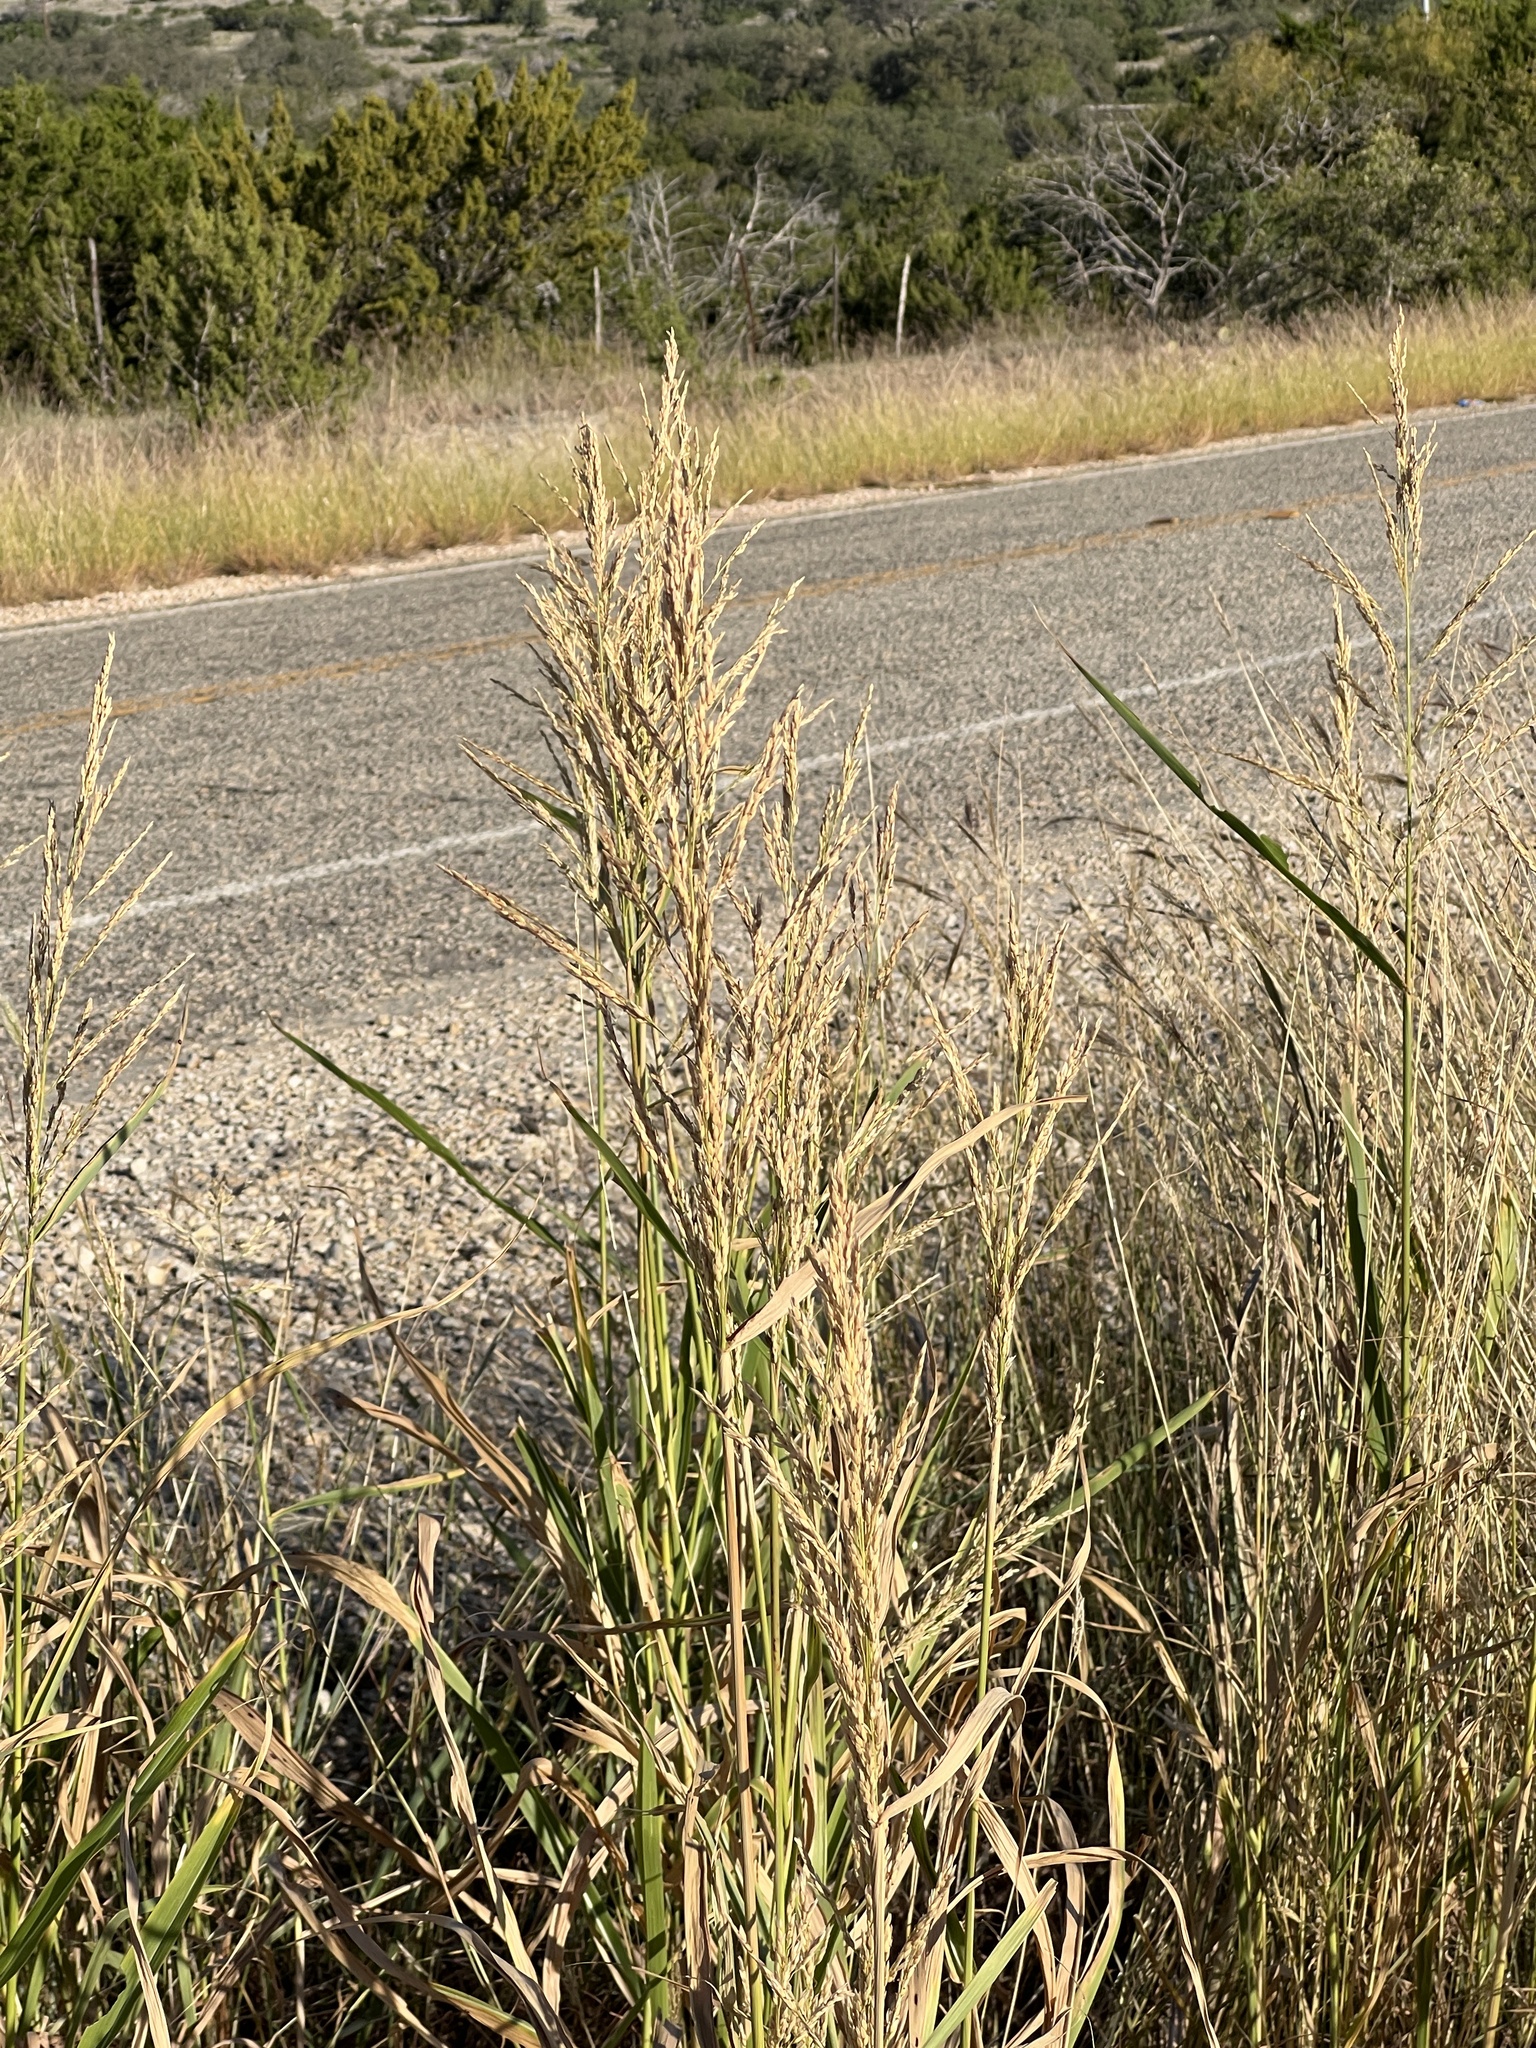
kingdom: Plantae
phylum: Tracheophyta
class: Liliopsida
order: Poales
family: Poaceae
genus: Sorghum
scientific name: Sorghum halepense
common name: Johnson-grass
